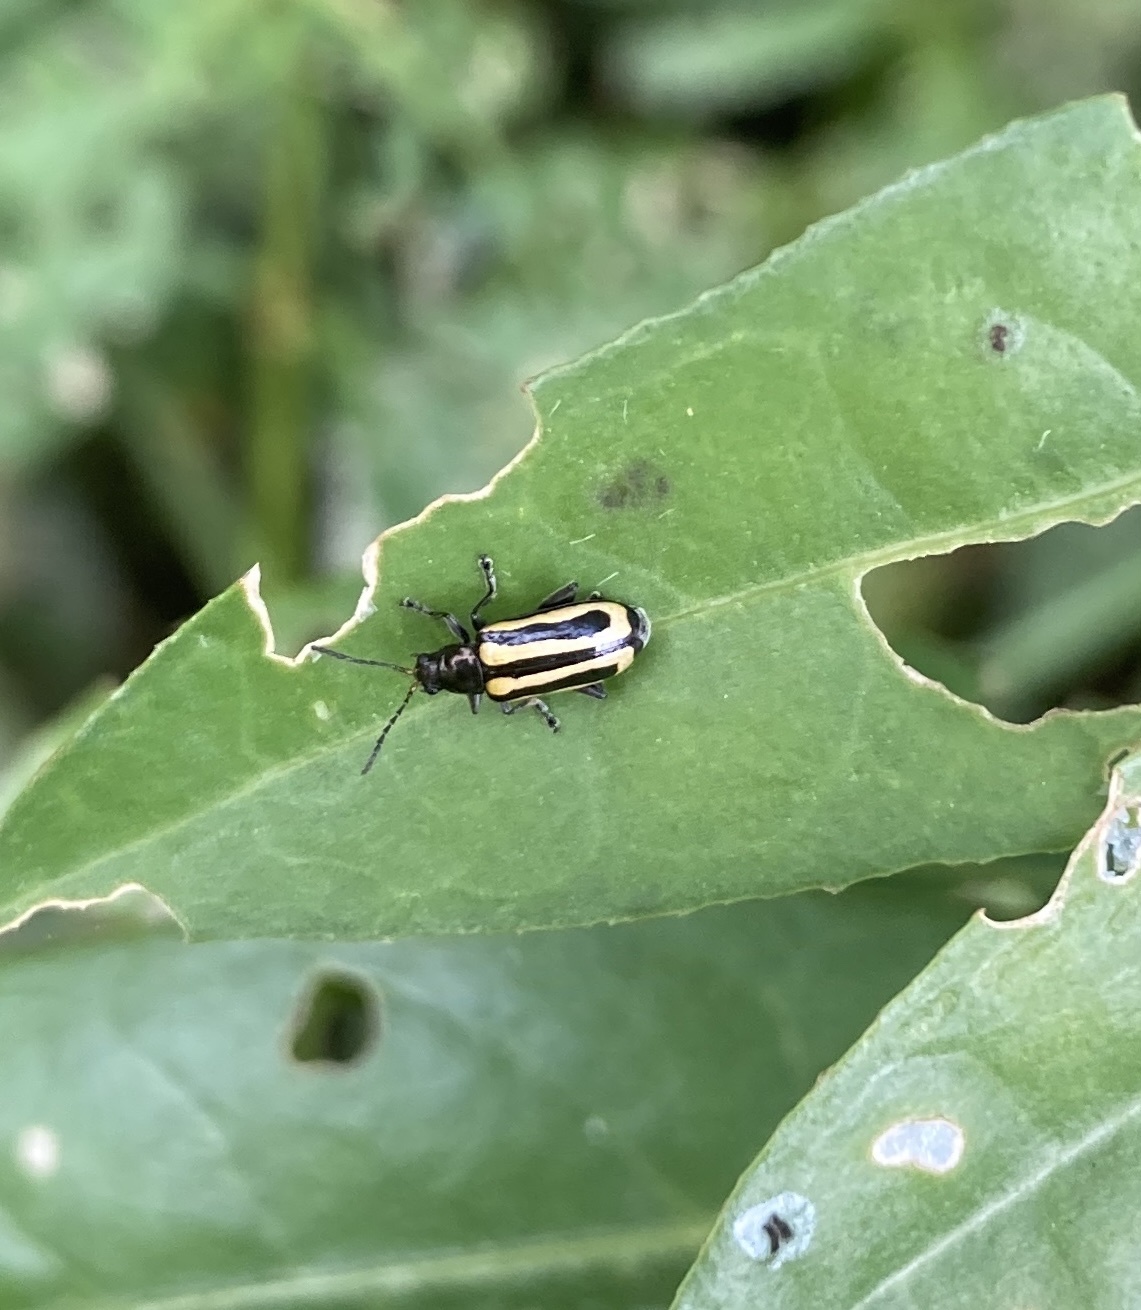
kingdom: Animalia
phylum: Arthropoda
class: Insecta
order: Coleoptera
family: Chrysomelidae
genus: Agasicles
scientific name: Agasicles hygrophila
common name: Alligatorweed flea beetle
